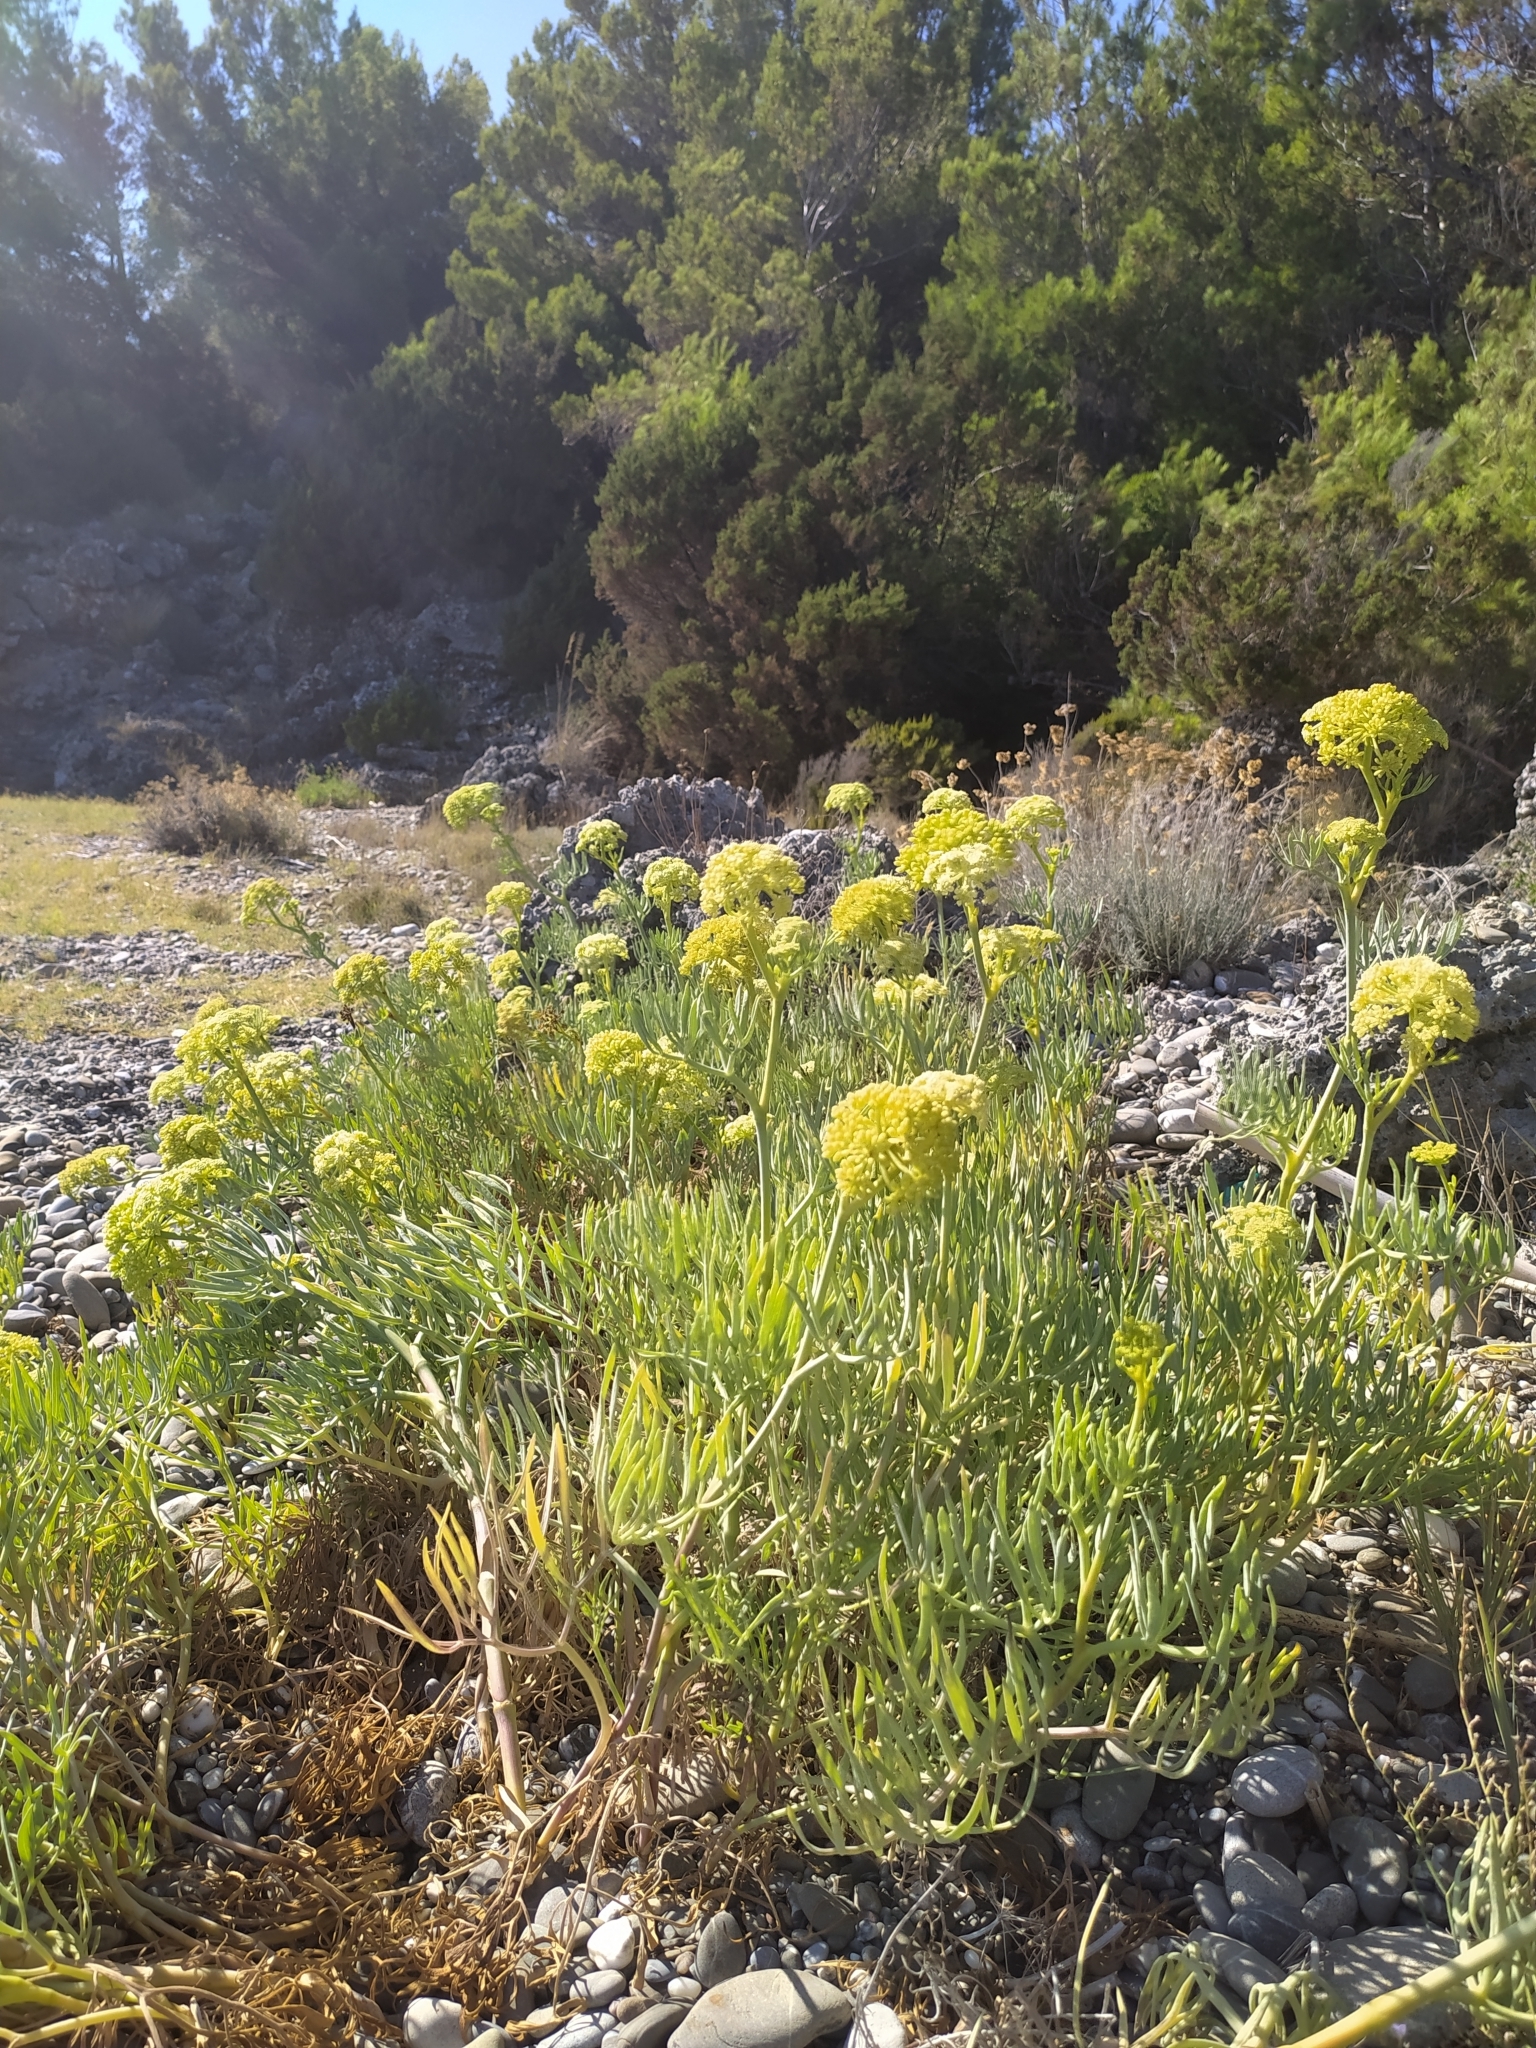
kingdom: Plantae
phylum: Tracheophyta
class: Magnoliopsida
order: Apiales
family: Apiaceae
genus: Crithmum
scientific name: Crithmum maritimum
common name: Rock samphire
